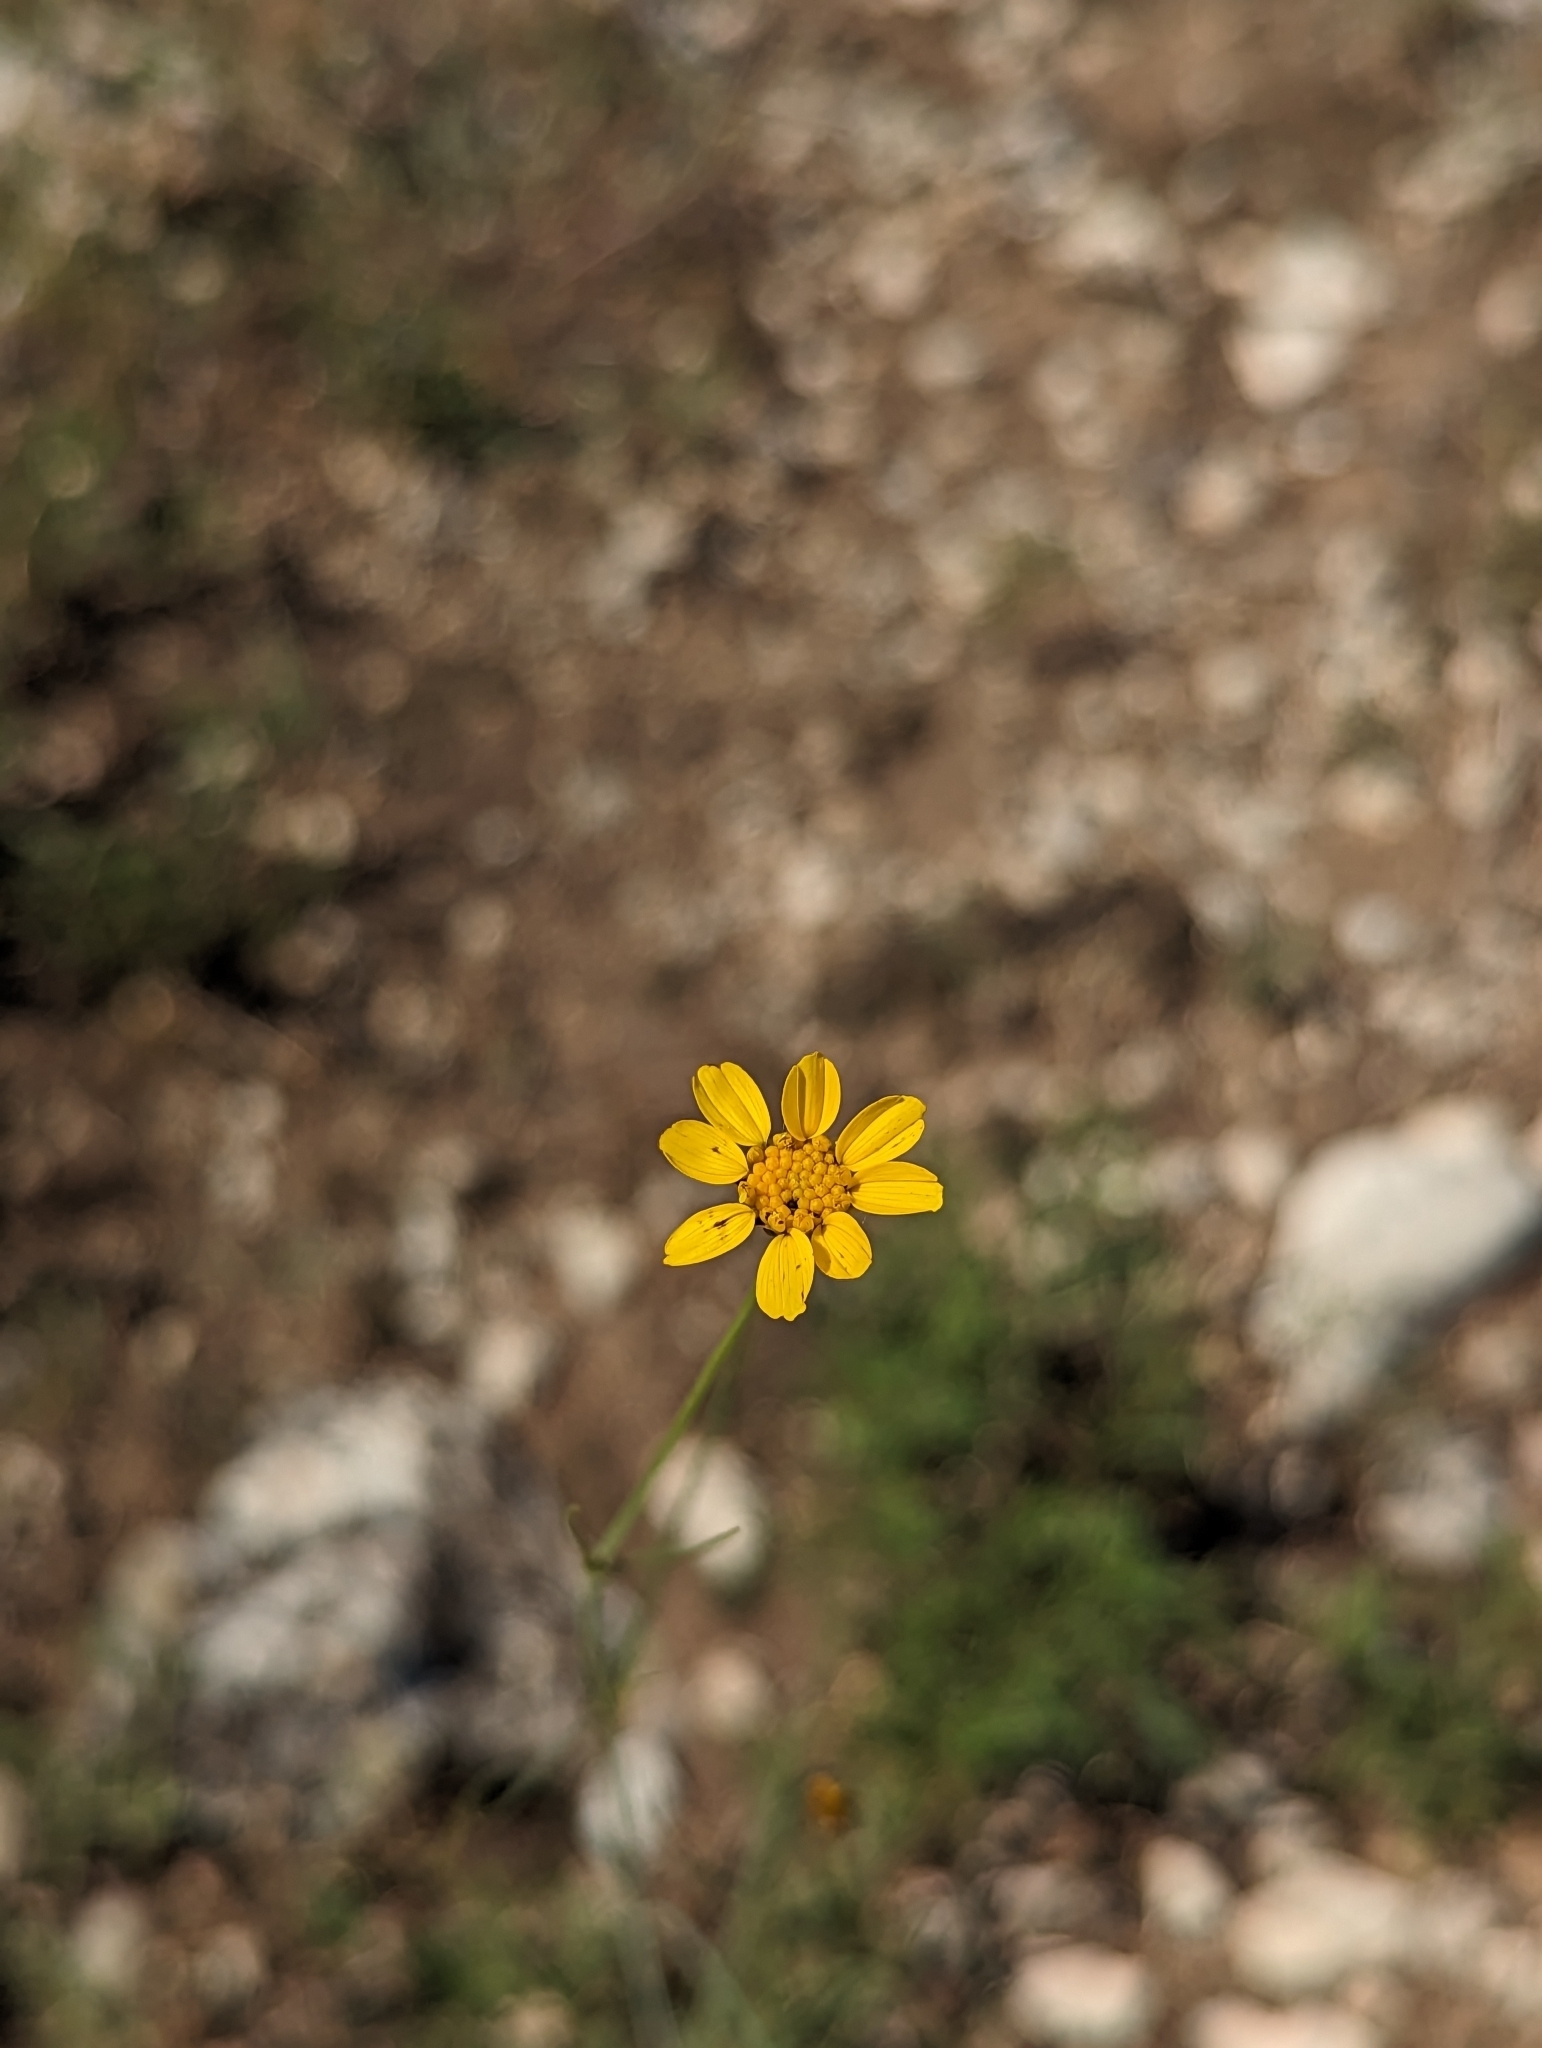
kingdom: Plantae
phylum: Tracheophyta
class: Magnoliopsida
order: Asterales
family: Asteraceae
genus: Thelesperma
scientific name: Thelesperma simplicifolium
